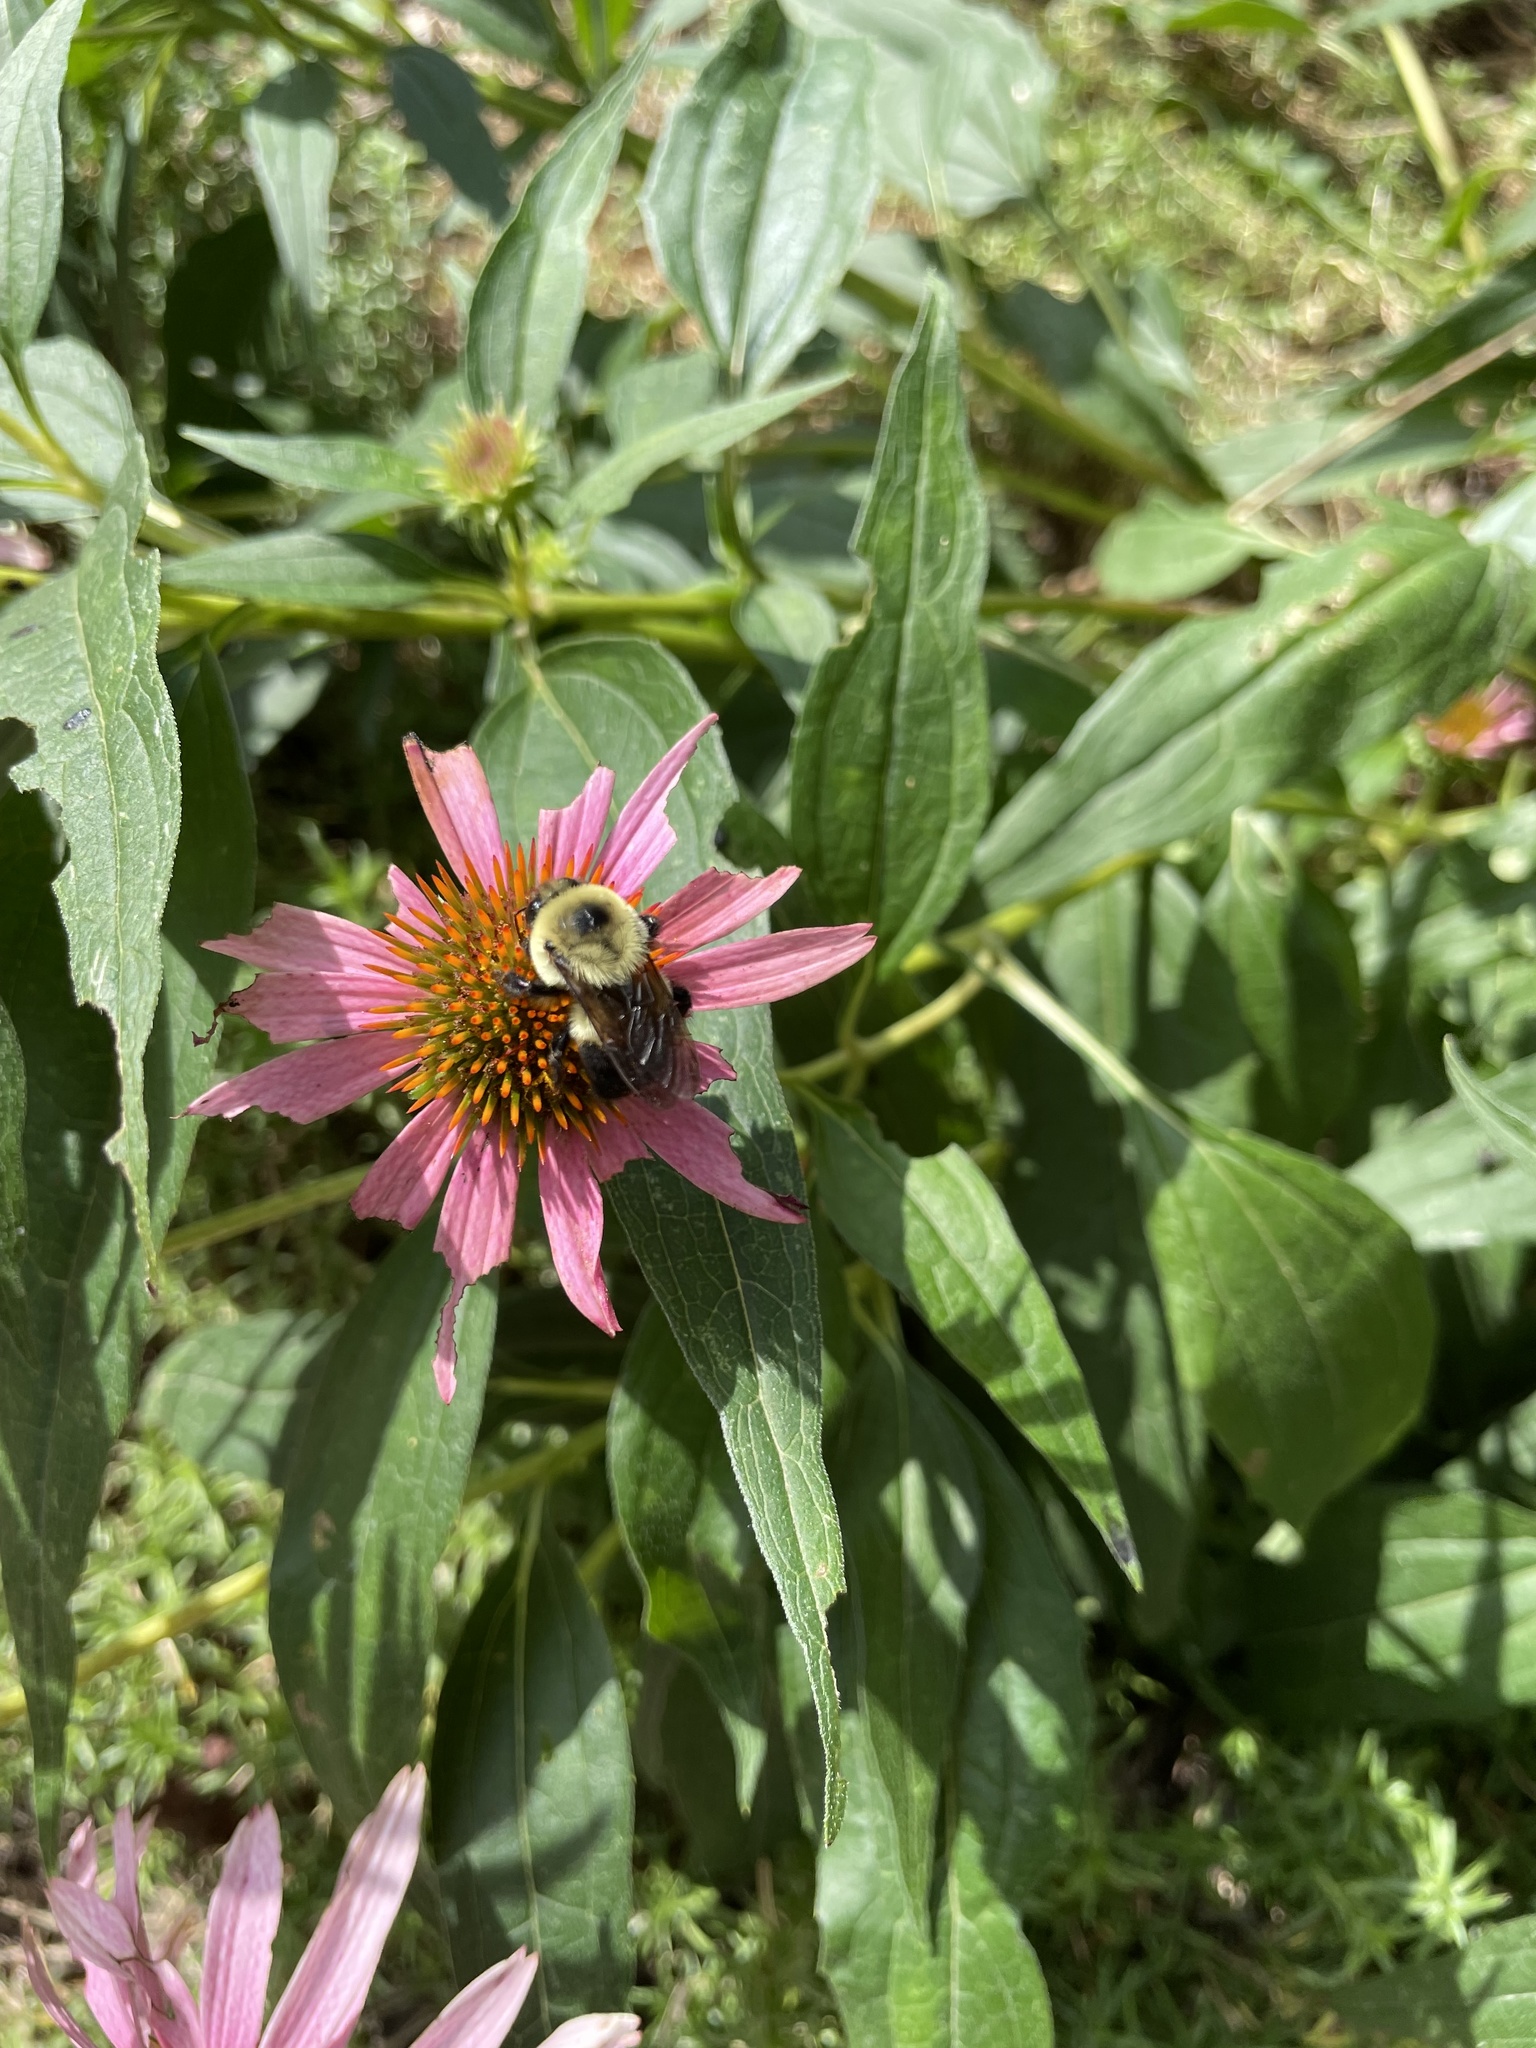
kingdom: Animalia
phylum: Arthropoda
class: Insecta
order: Hymenoptera
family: Apidae
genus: Bombus
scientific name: Bombus griseocollis
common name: Brown-belted bumble bee
